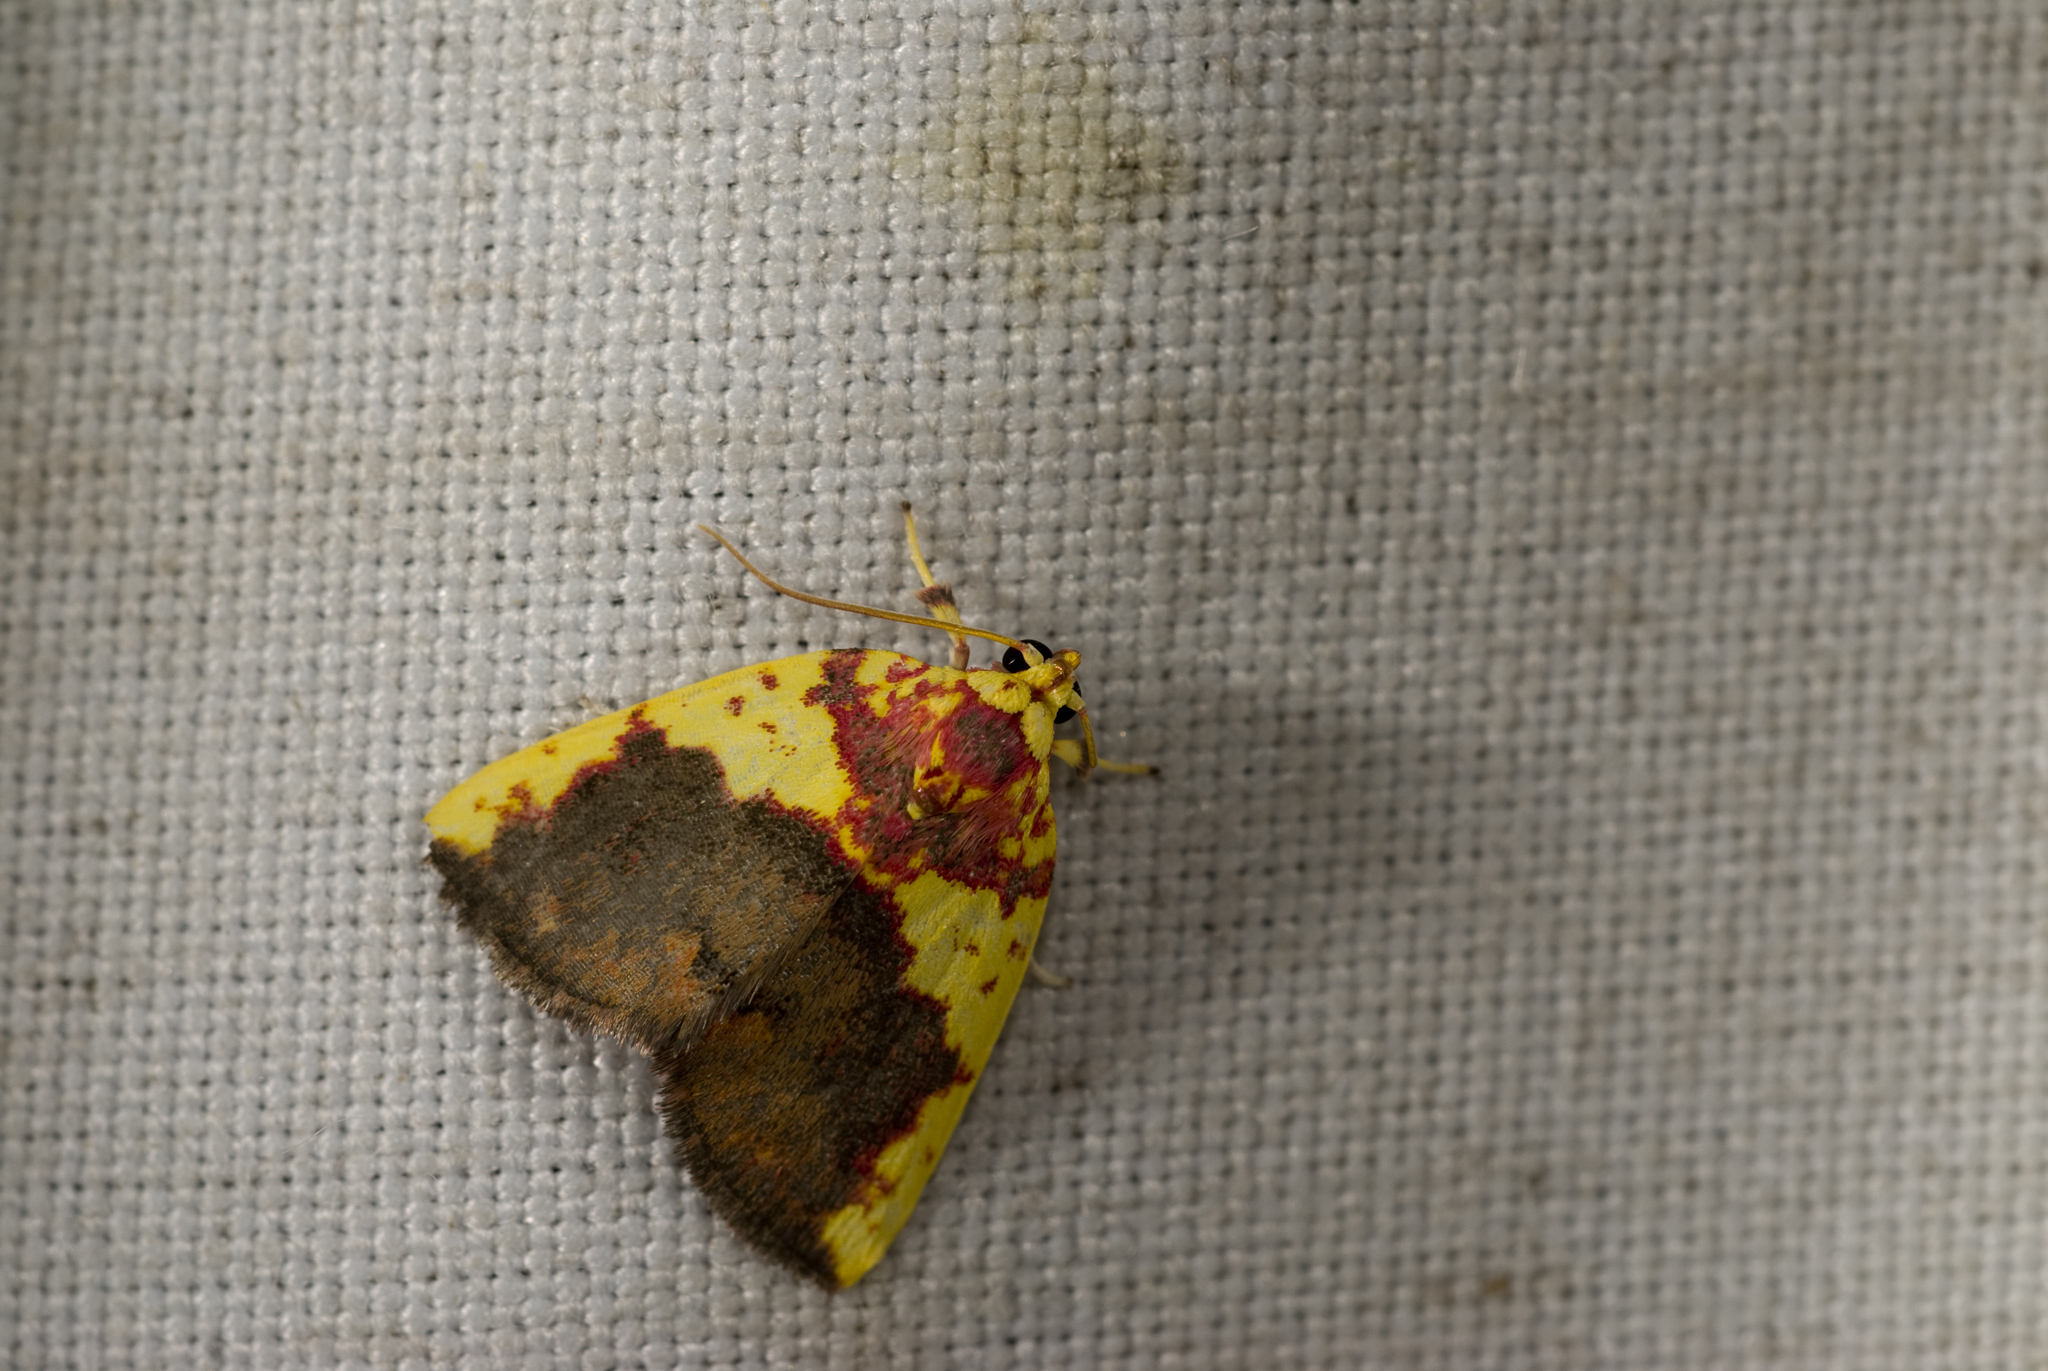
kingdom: Animalia
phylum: Arthropoda
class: Insecta
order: Lepidoptera
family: Nolidae
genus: Siglophora
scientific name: Siglophora sanguinolenta
